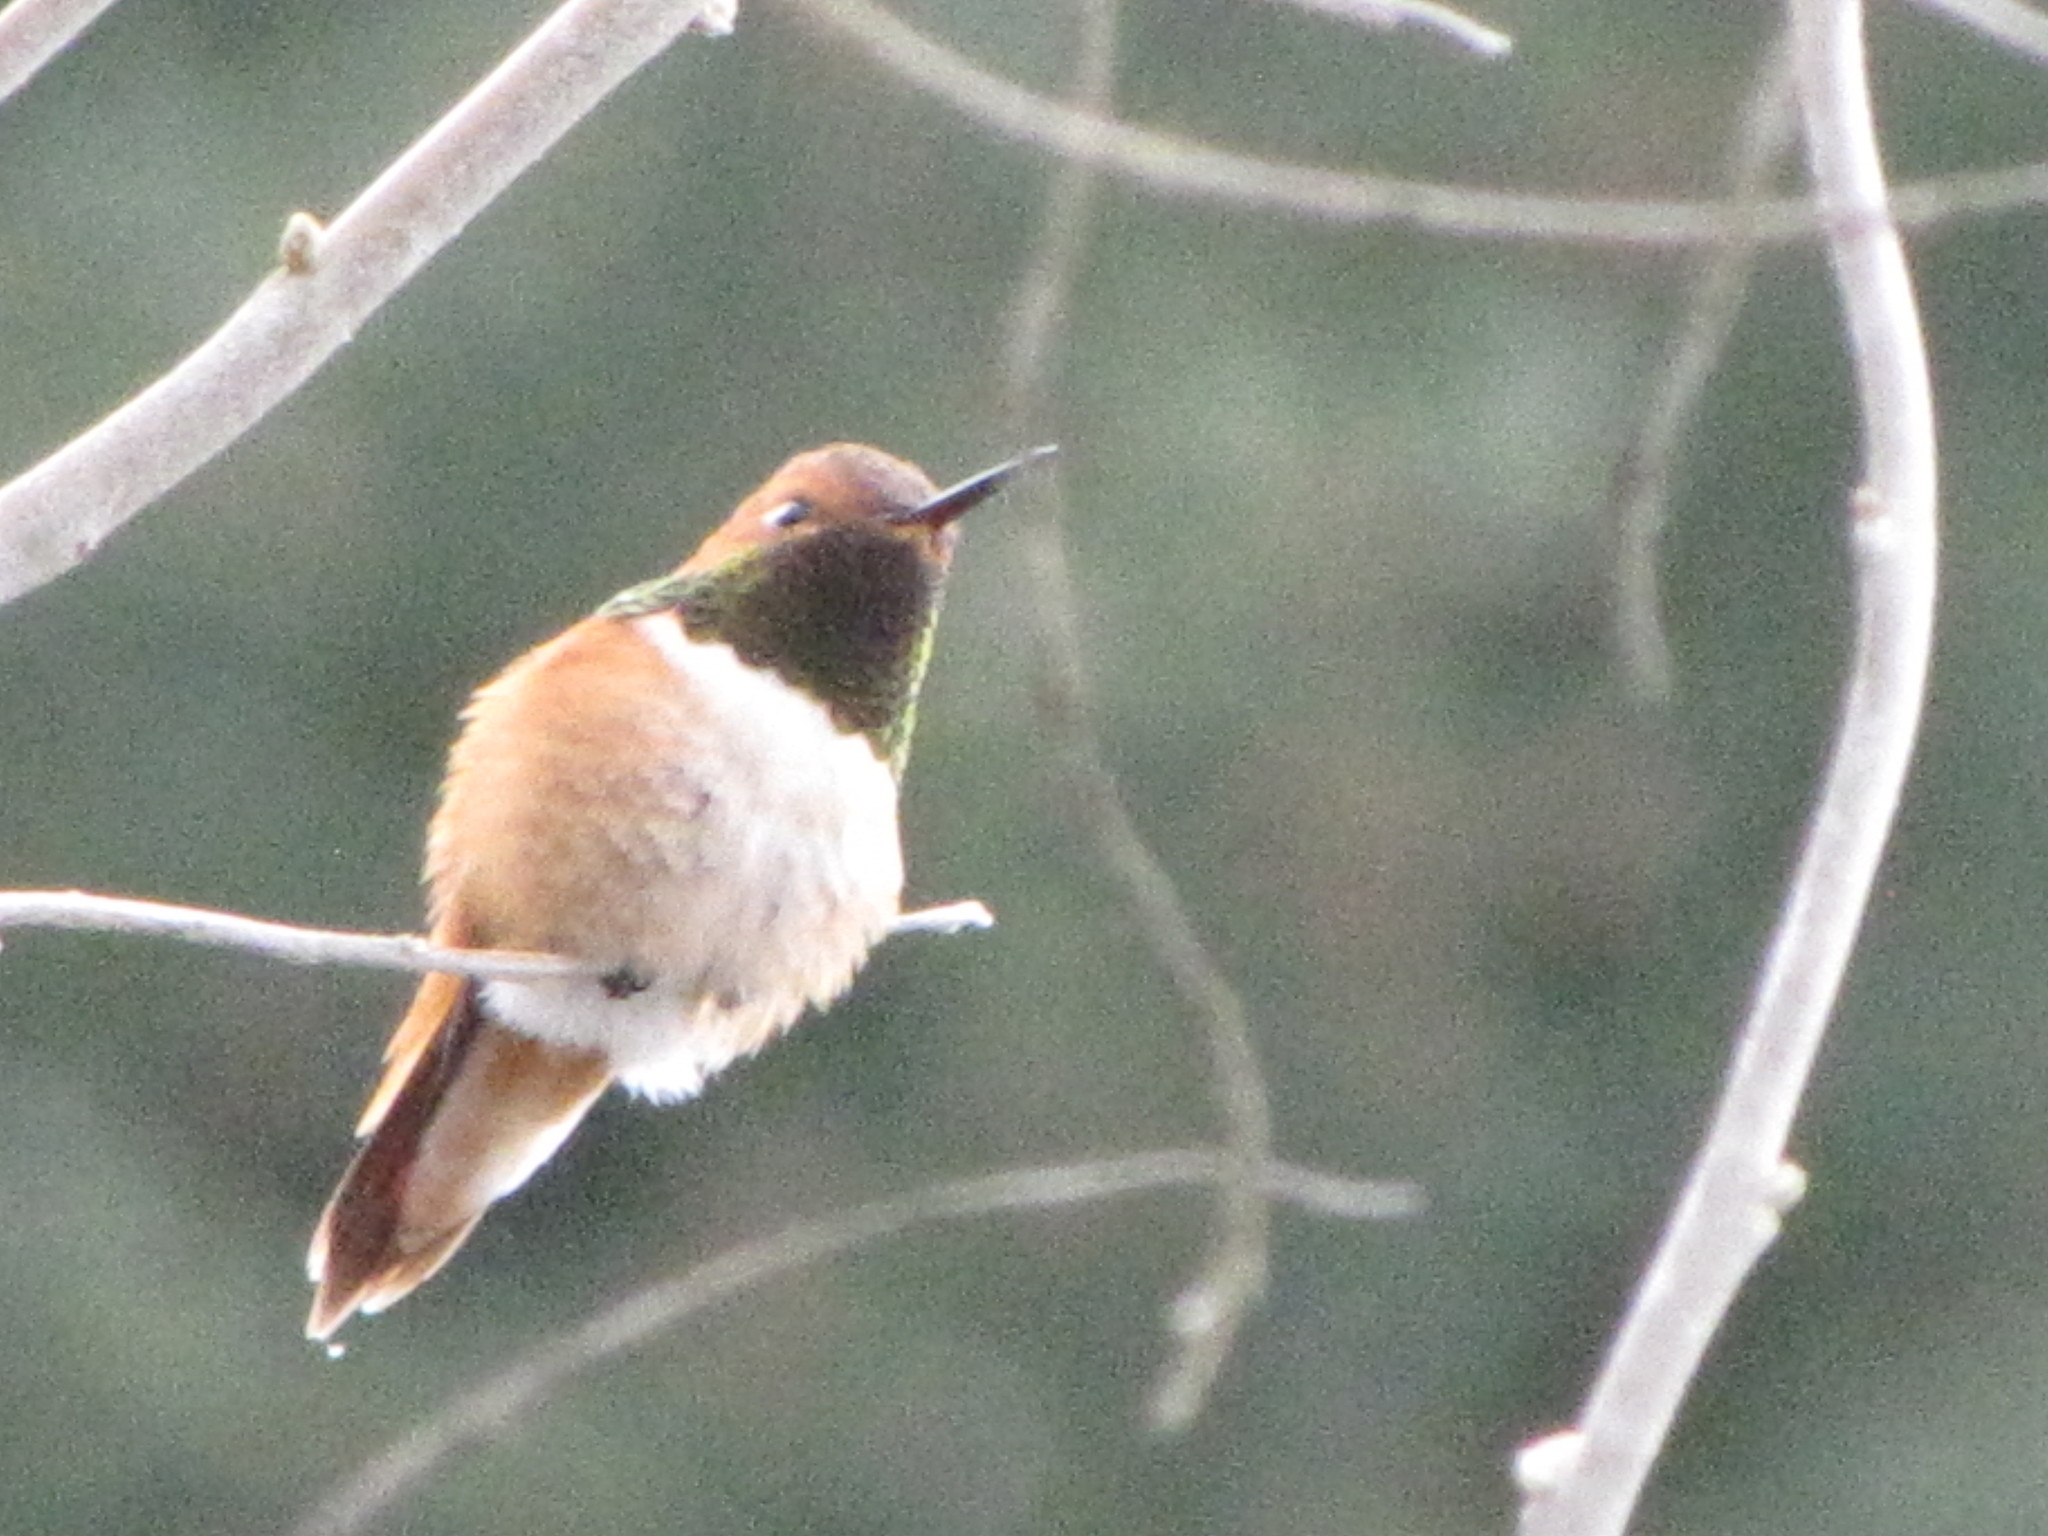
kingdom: Animalia
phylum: Chordata
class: Aves
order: Apodiformes
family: Trochilidae
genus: Selasphorus
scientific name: Selasphorus rufus
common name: Rufous hummingbird
